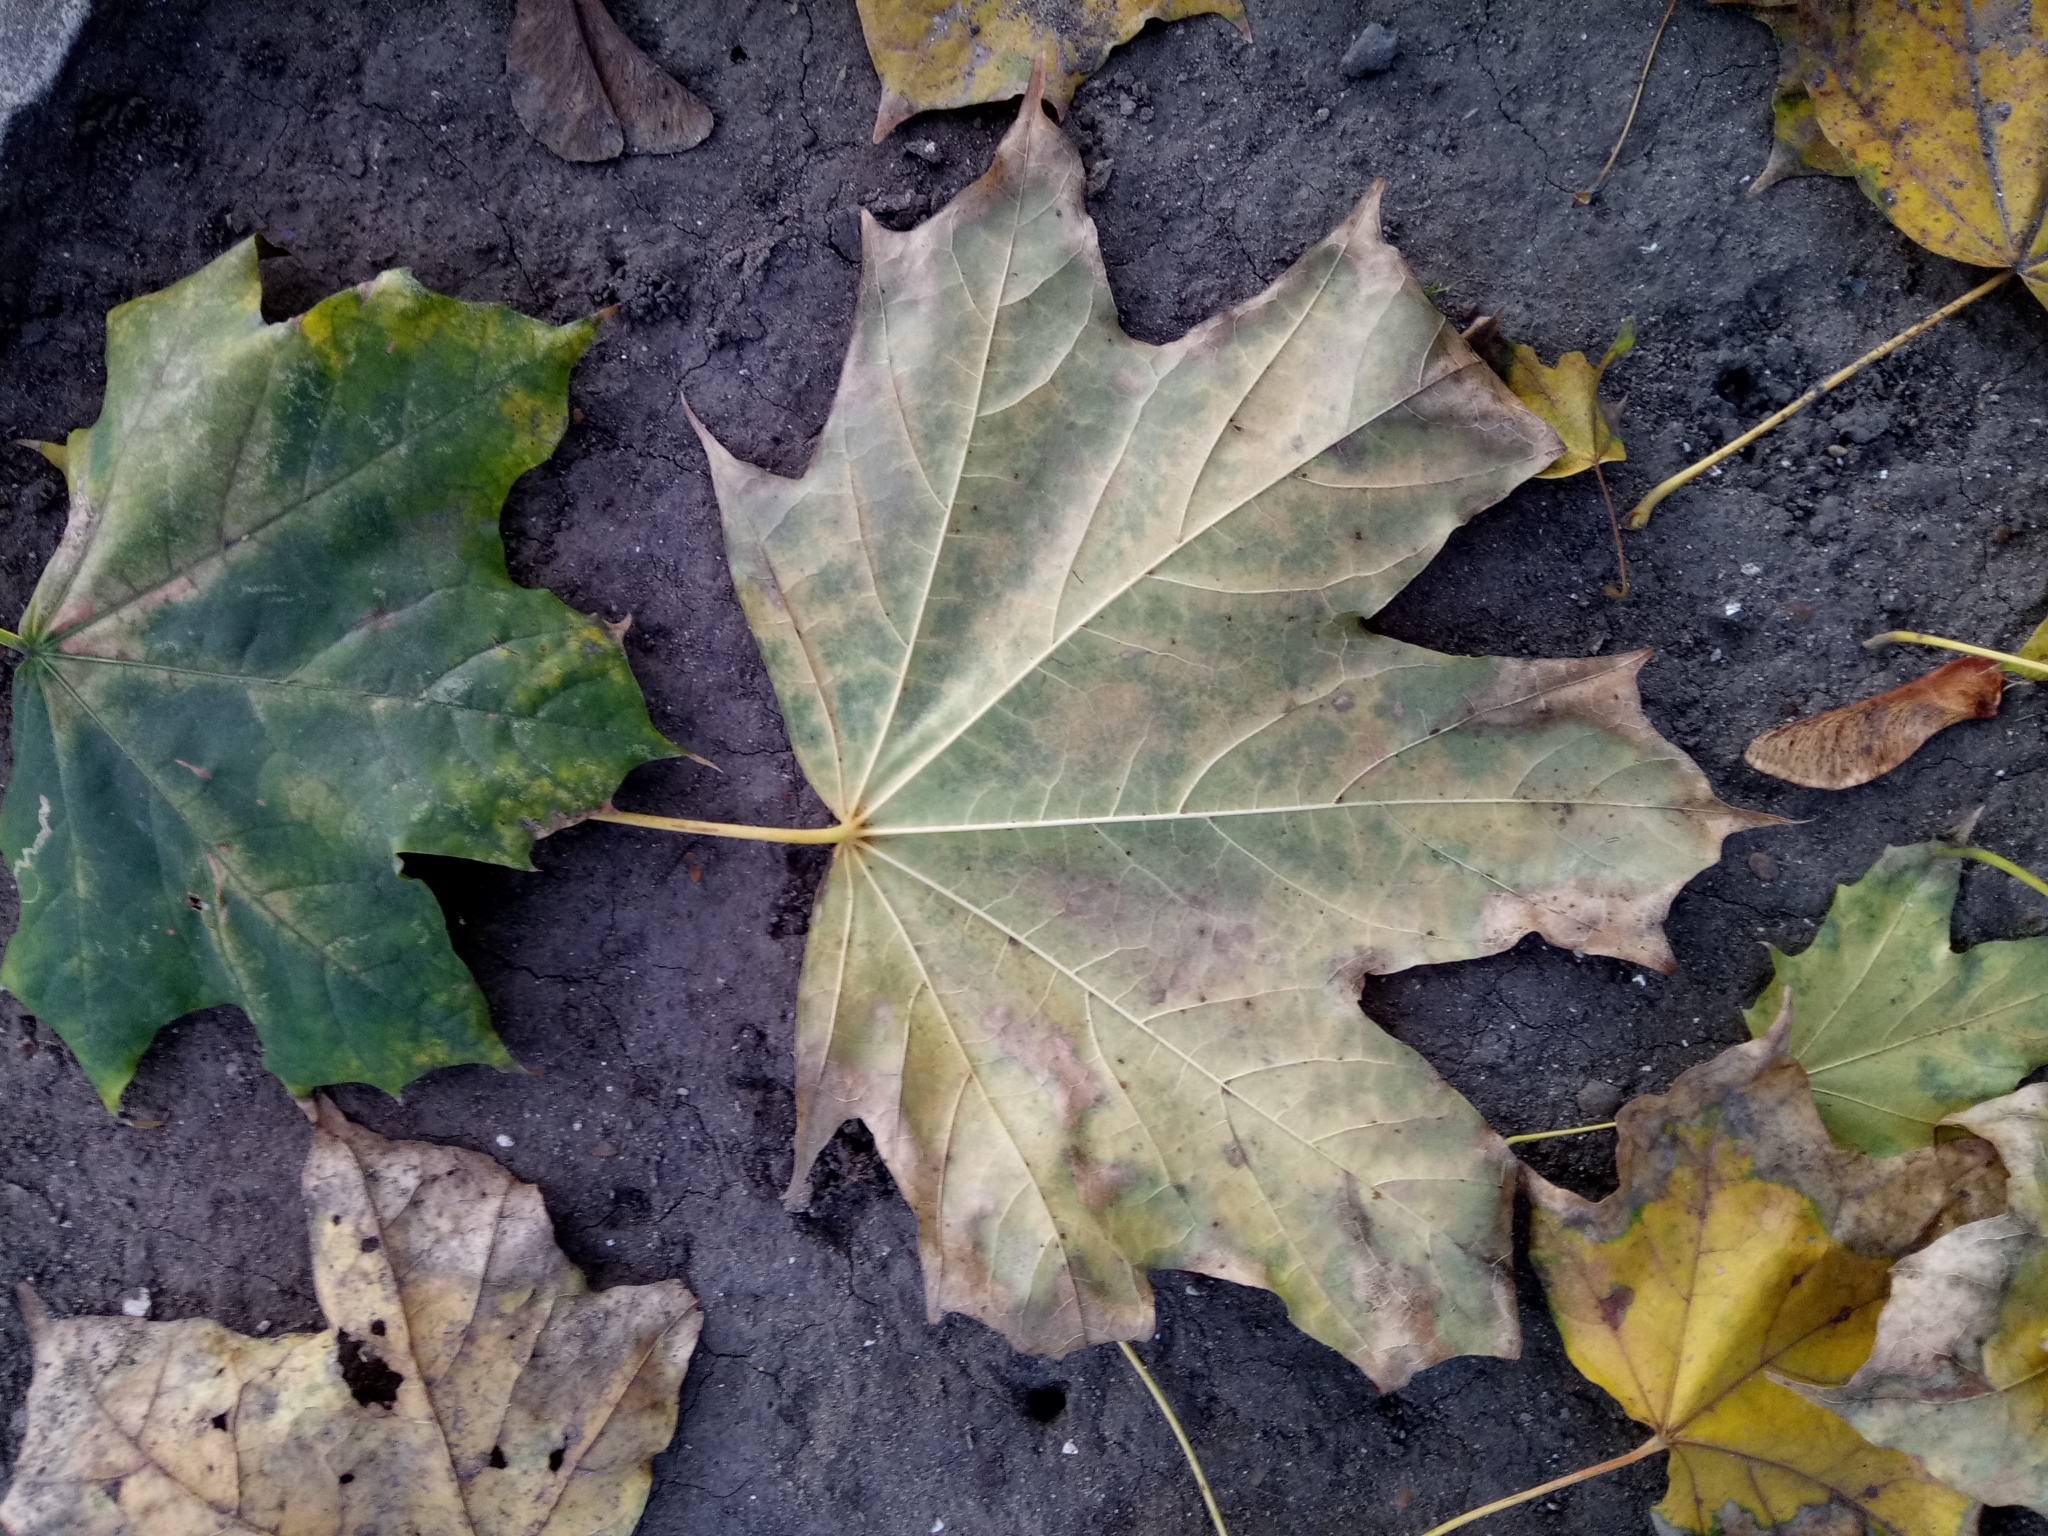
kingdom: Plantae
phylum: Tracheophyta
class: Magnoliopsida
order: Sapindales
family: Sapindaceae
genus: Acer
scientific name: Acer platanoides
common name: Norway maple
